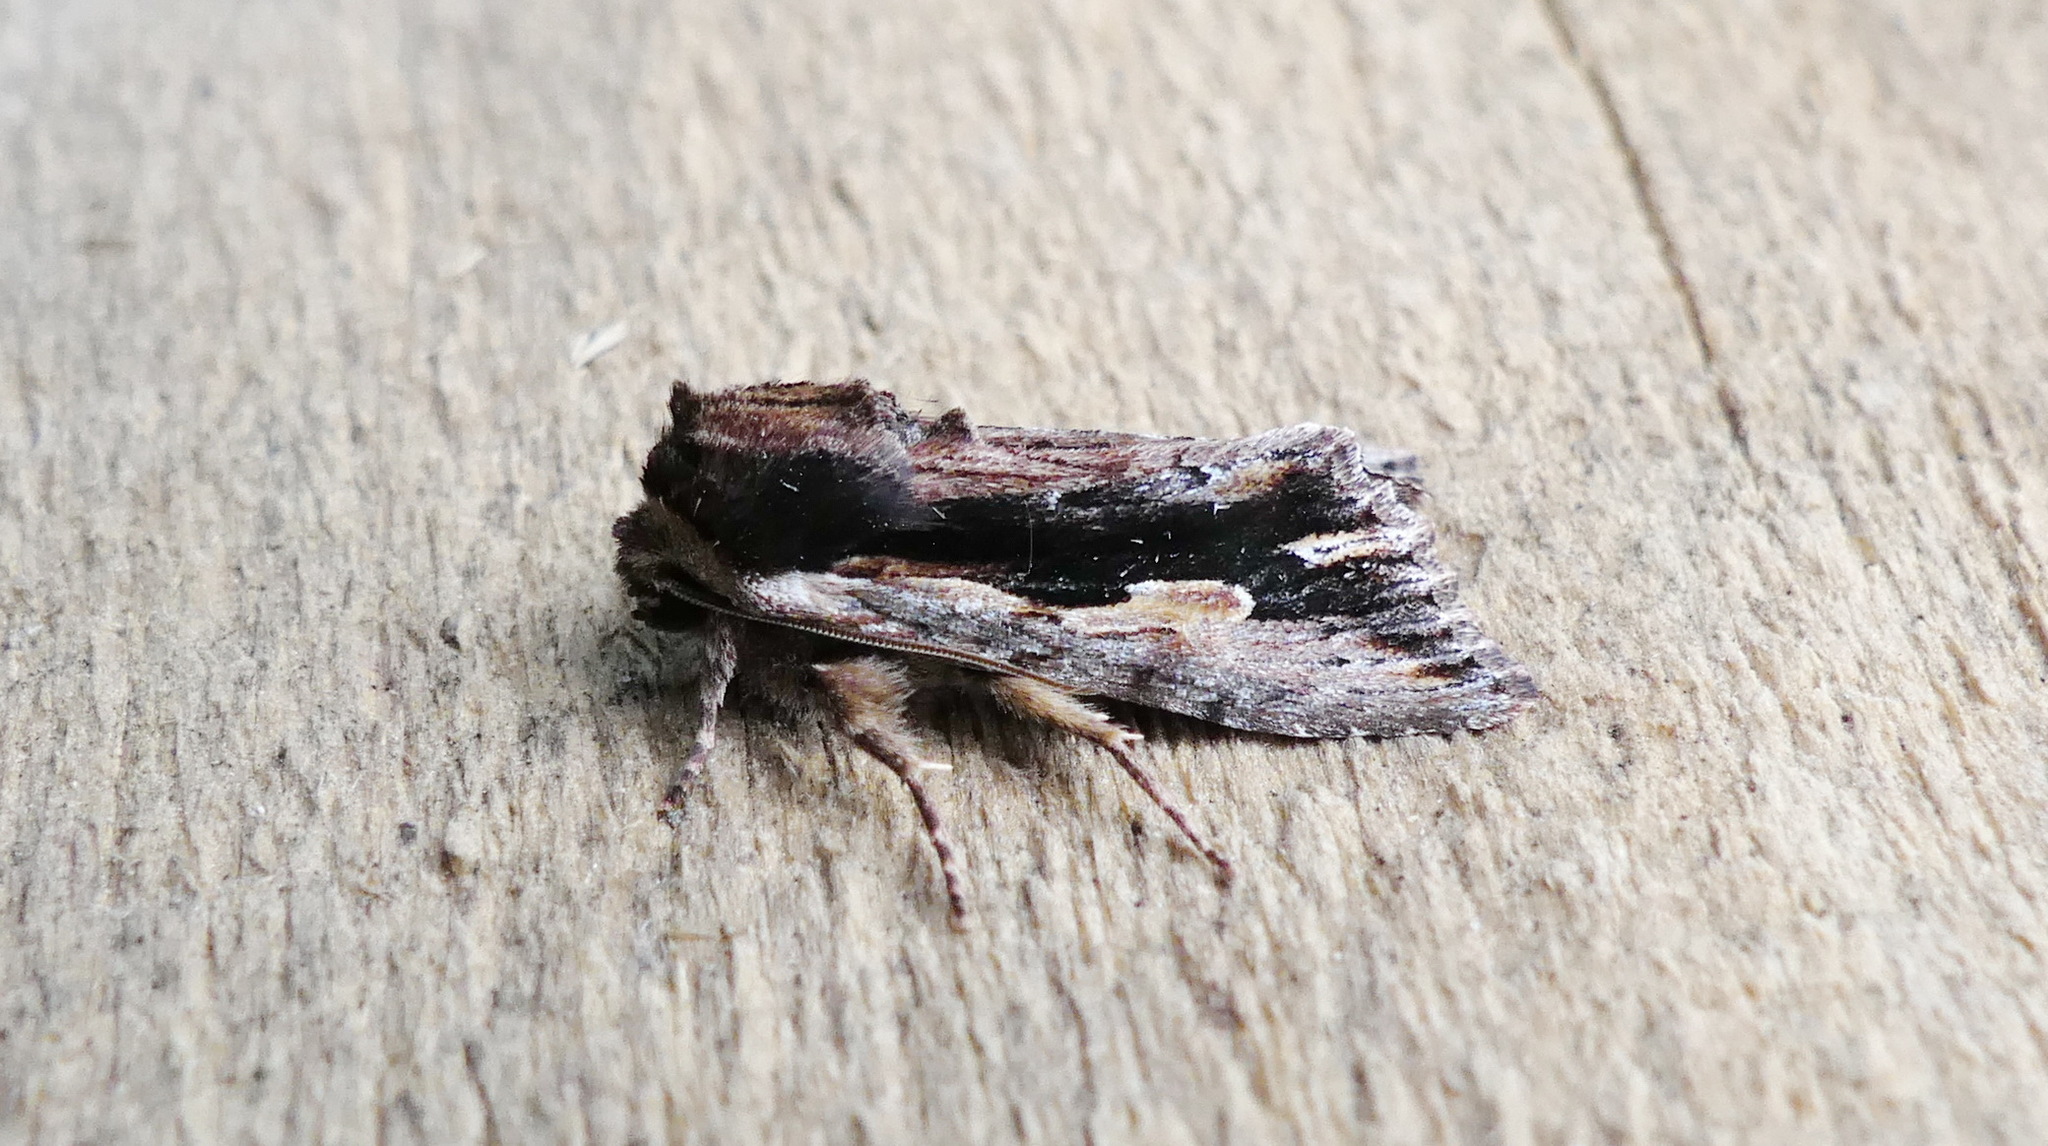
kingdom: Animalia
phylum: Arthropoda
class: Insecta
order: Lepidoptera
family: Noctuidae
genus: Achatia
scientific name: Achatia evicta
